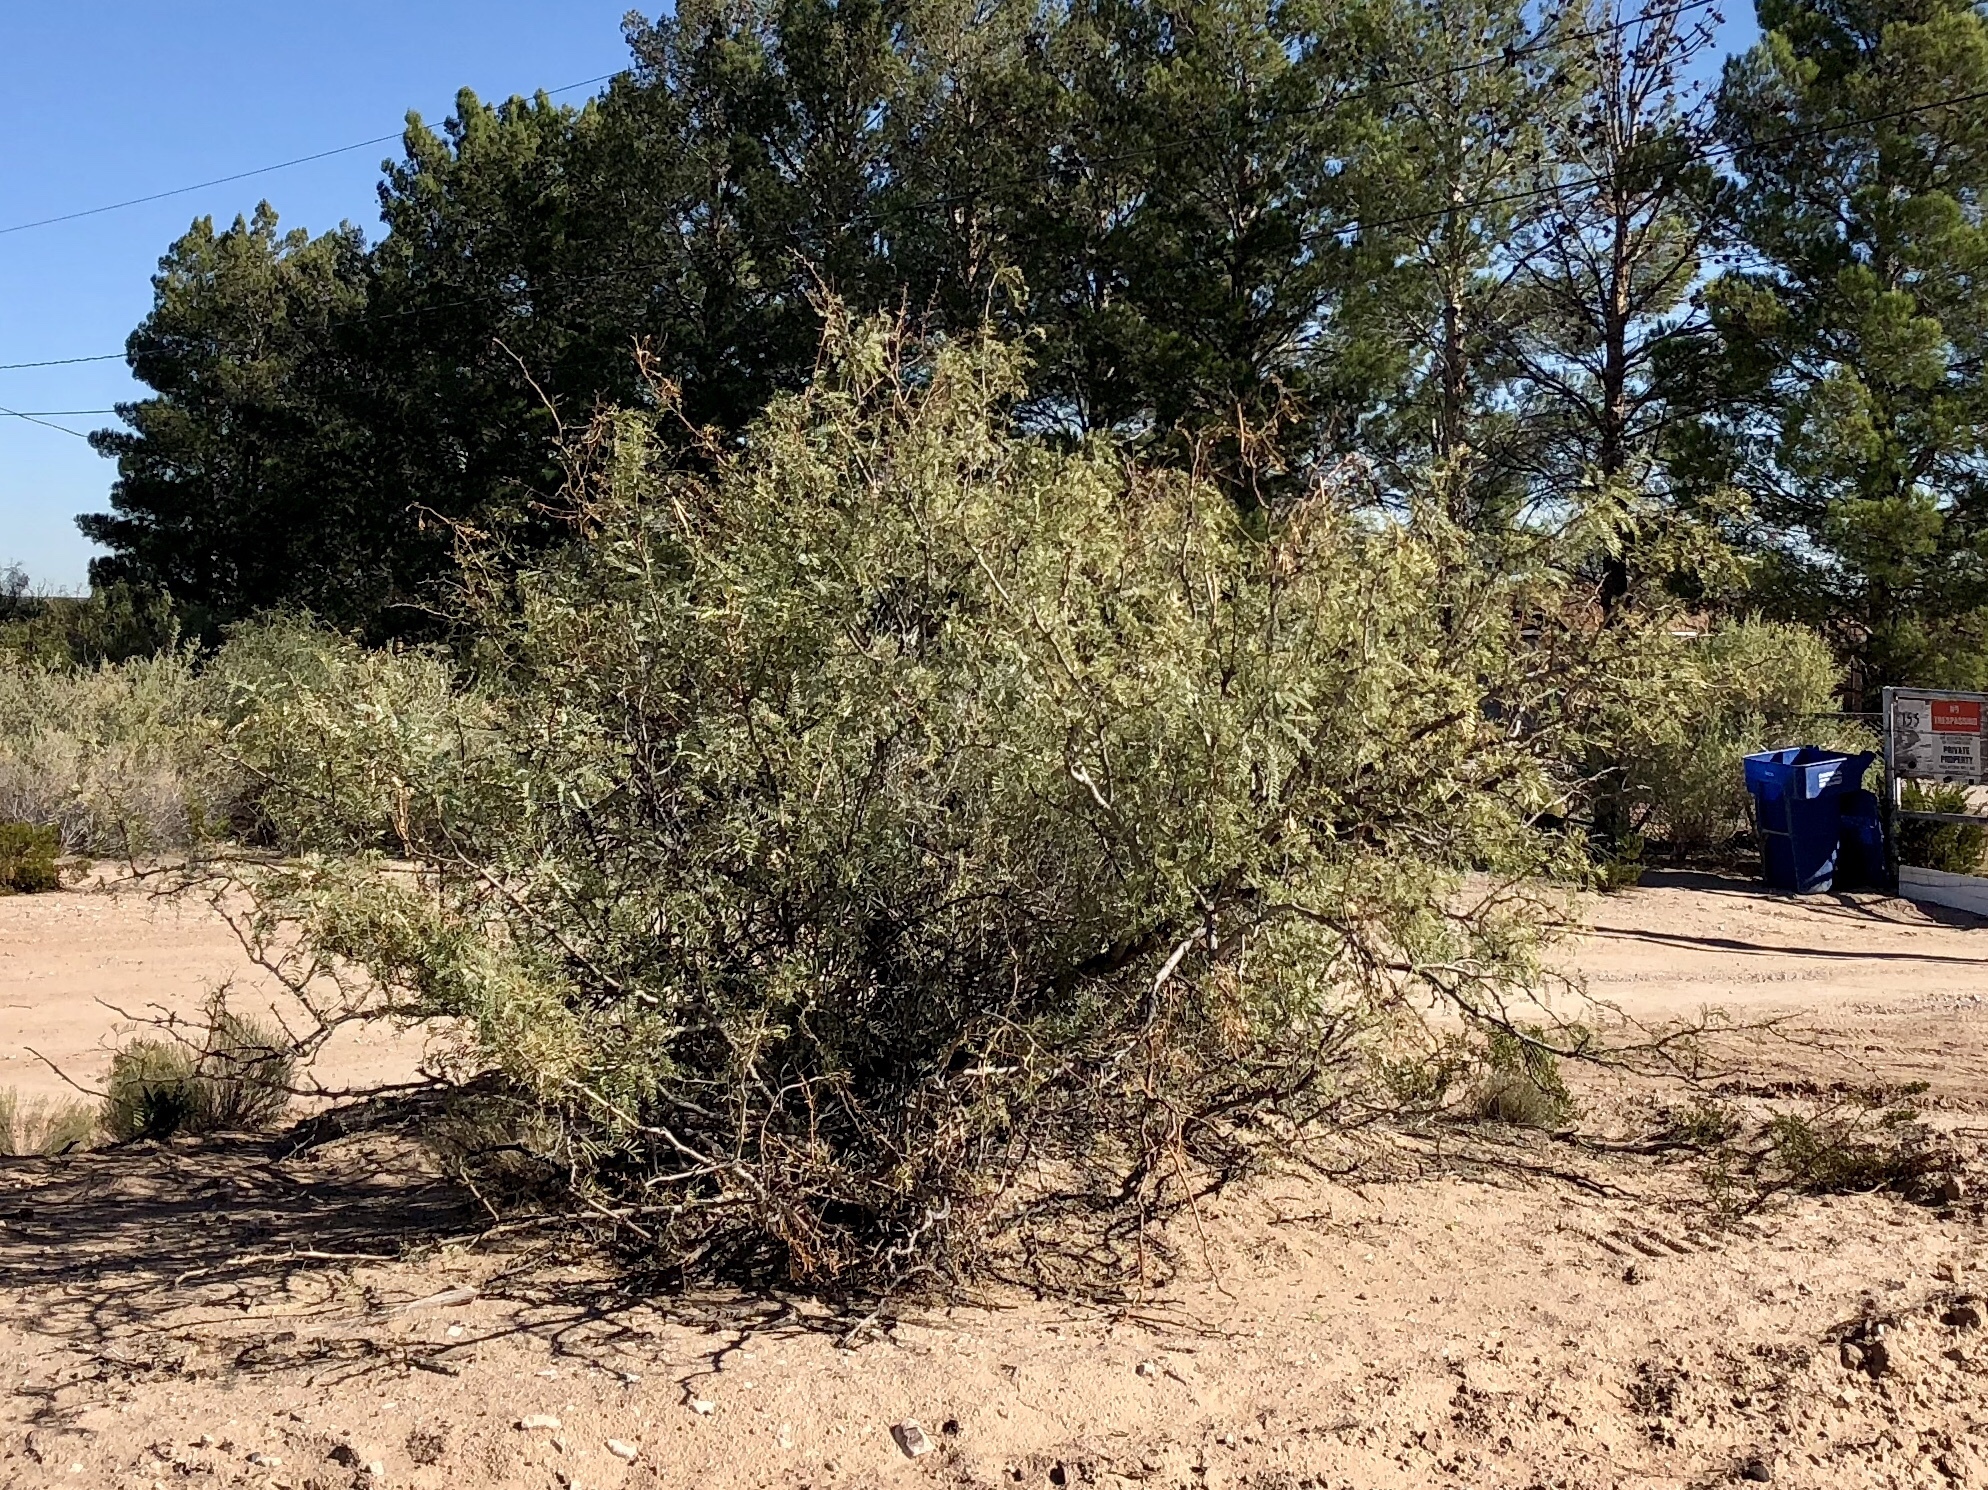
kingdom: Plantae
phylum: Tracheophyta
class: Magnoliopsida
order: Fabales
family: Fabaceae
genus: Prosopis
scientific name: Prosopis glandulosa
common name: Honey mesquite
